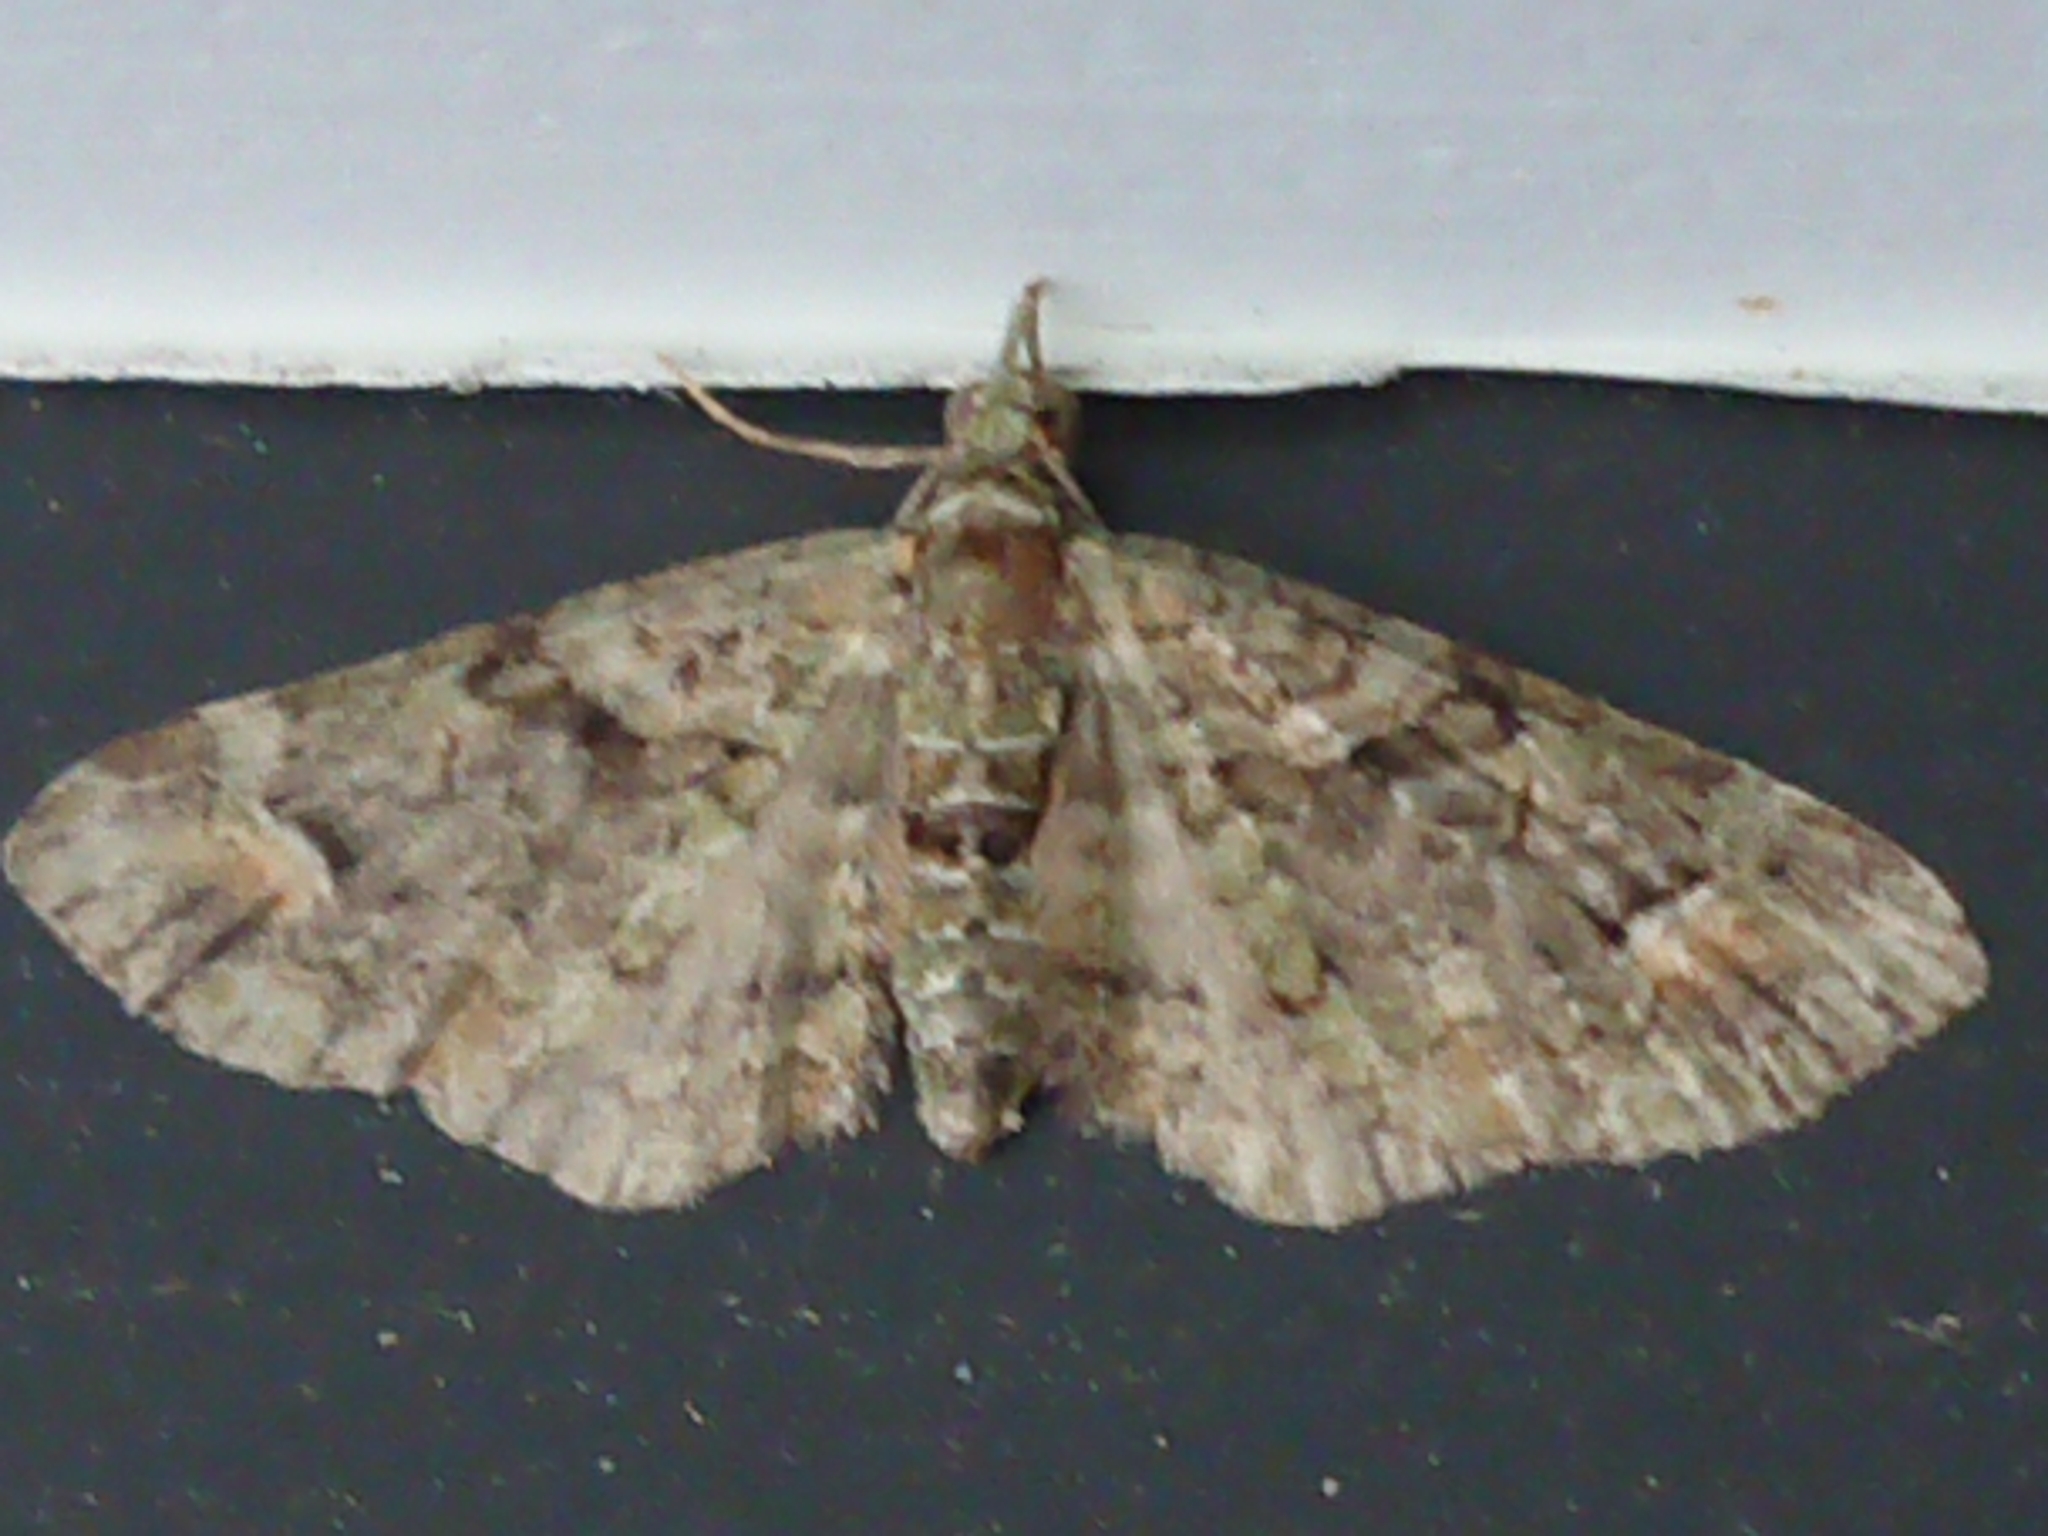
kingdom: Animalia
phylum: Arthropoda
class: Insecta
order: Lepidoptera
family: Geometridae
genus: Idaea
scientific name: Idaea mutanda
